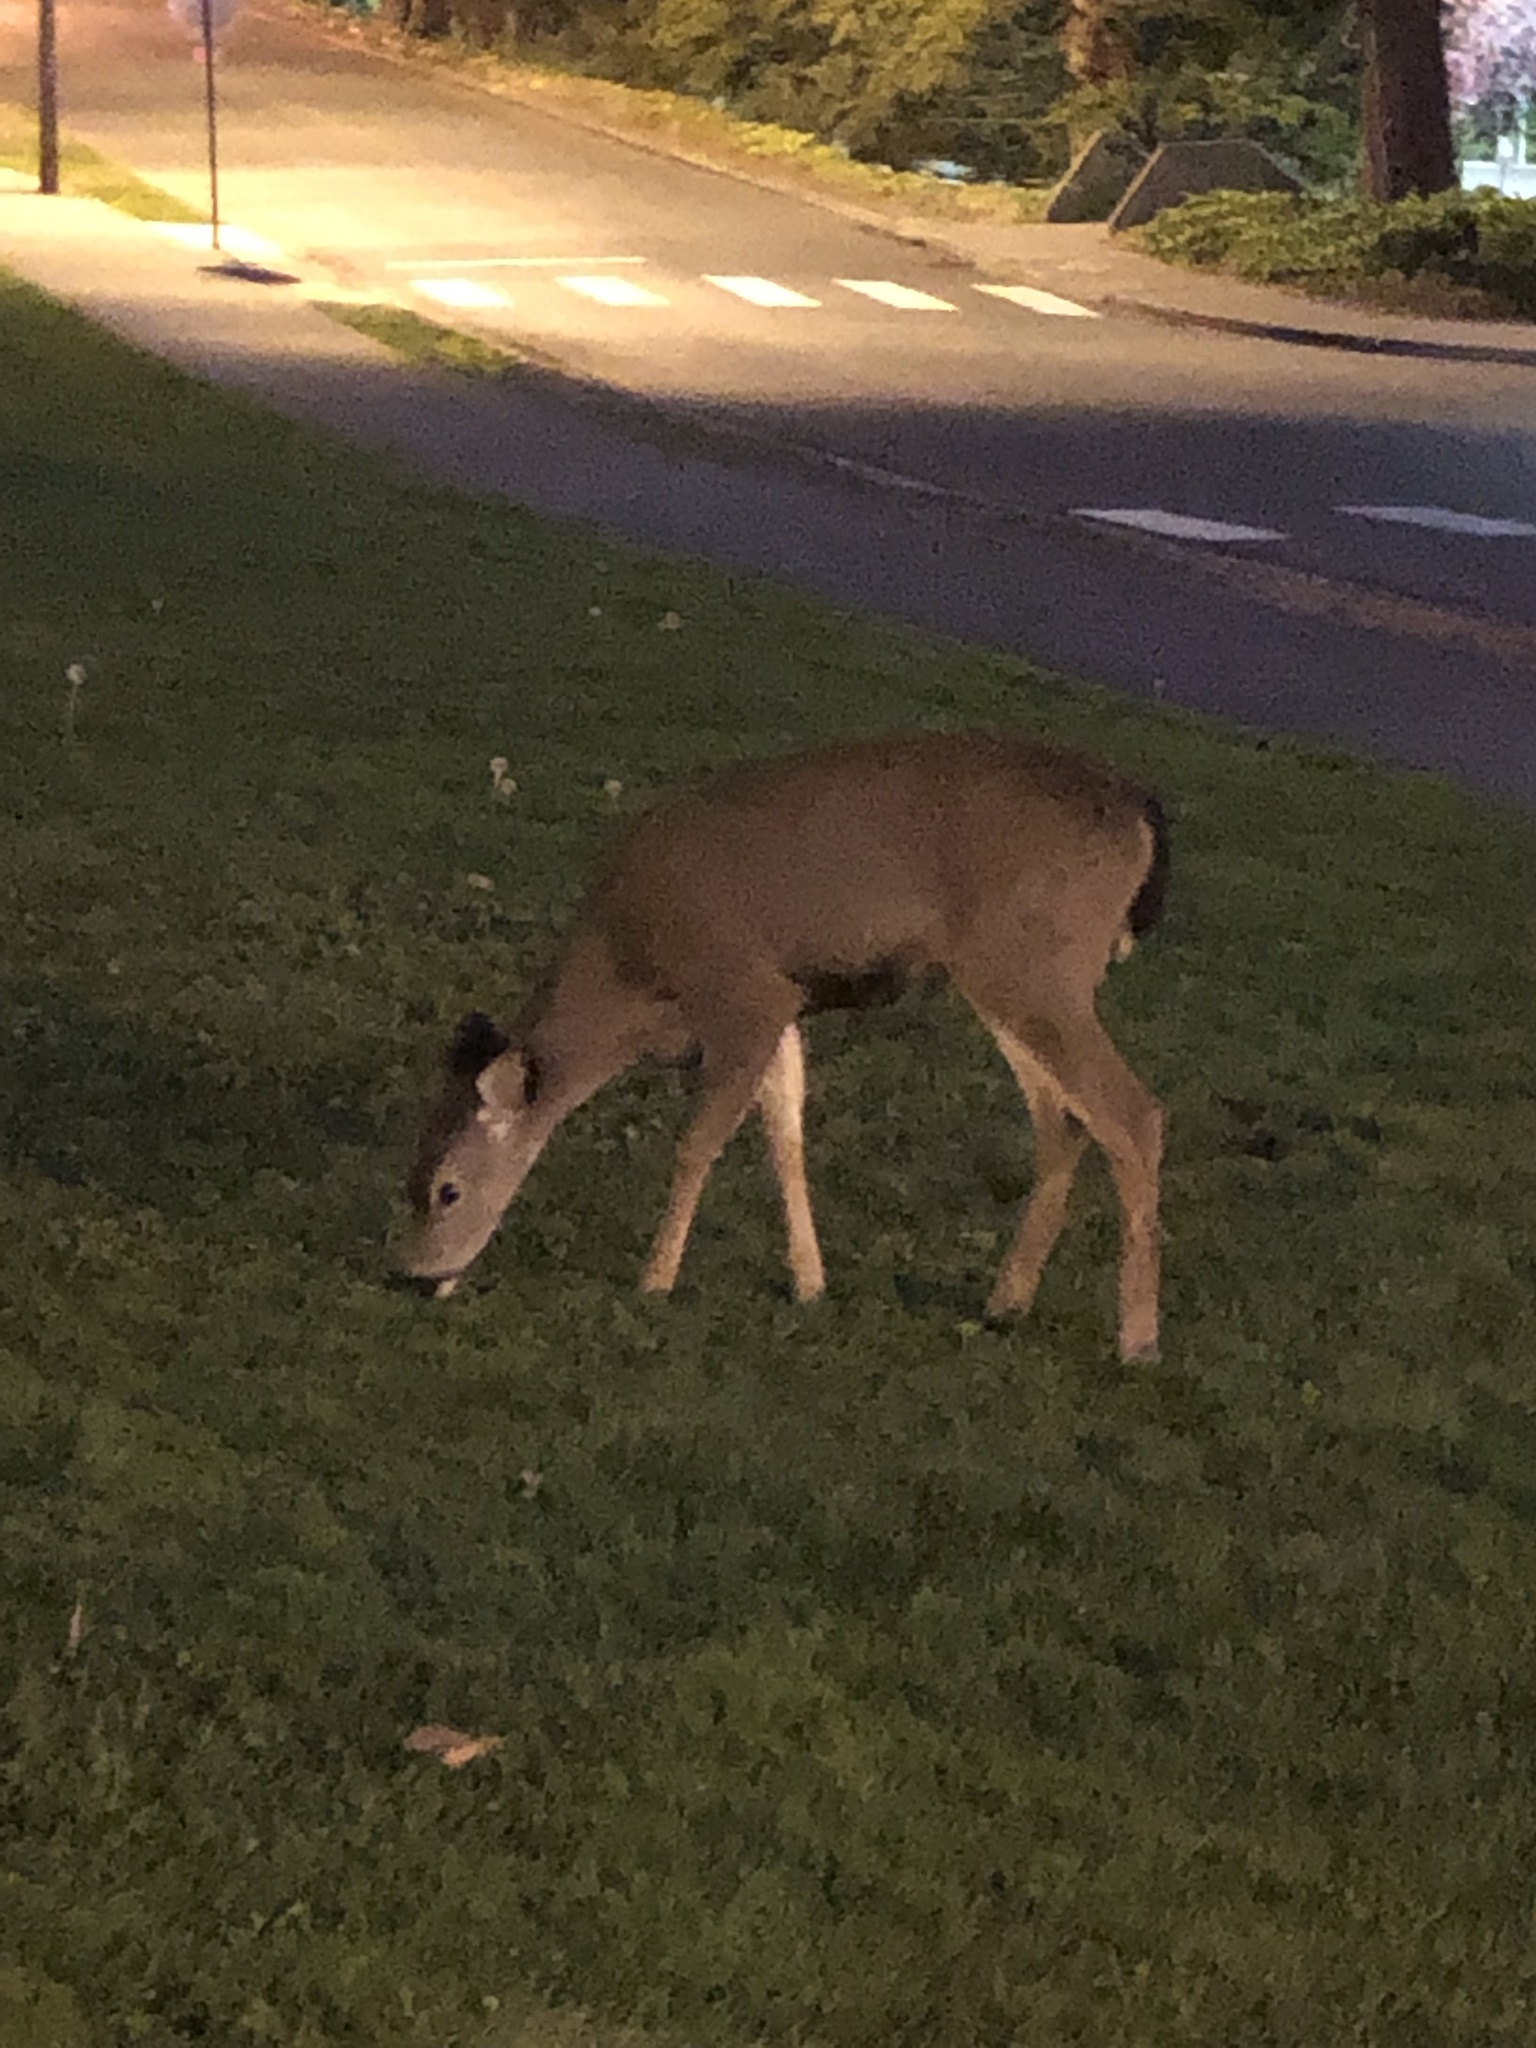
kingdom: Animalia
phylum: Chordata
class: Mammalia
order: Artiodactyla
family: Cervidae
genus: Odocoileus
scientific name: Odocoileus hemionus
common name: Mule deer
